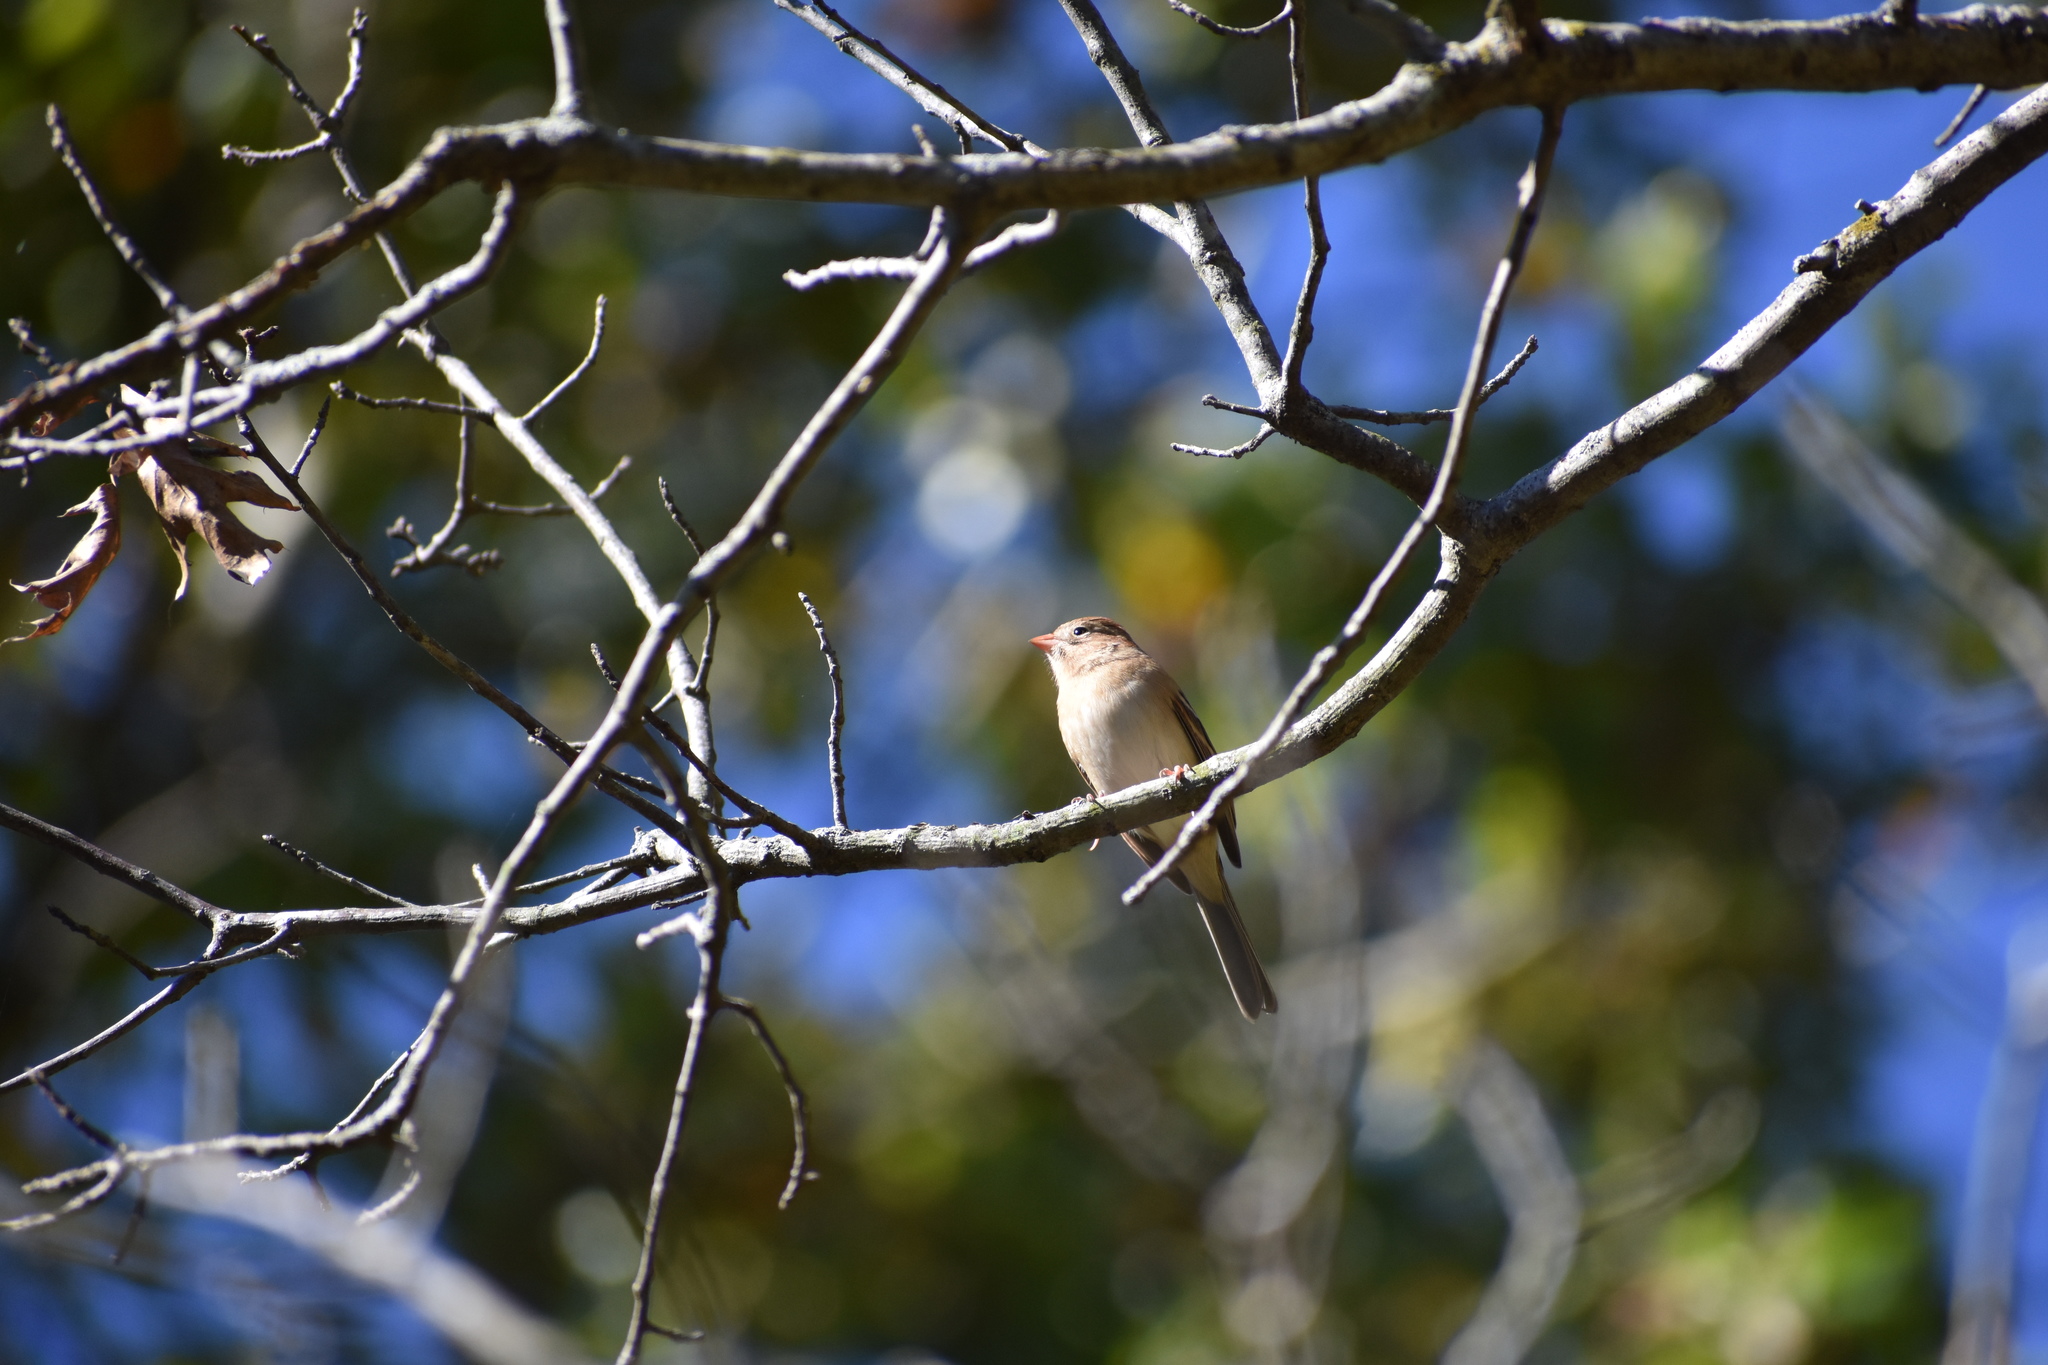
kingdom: Animalia
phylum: Chordata
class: Aves
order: Passeriformes
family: Passerellidae
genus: Spizella
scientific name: Spizella pusilla
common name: Field sparrow
